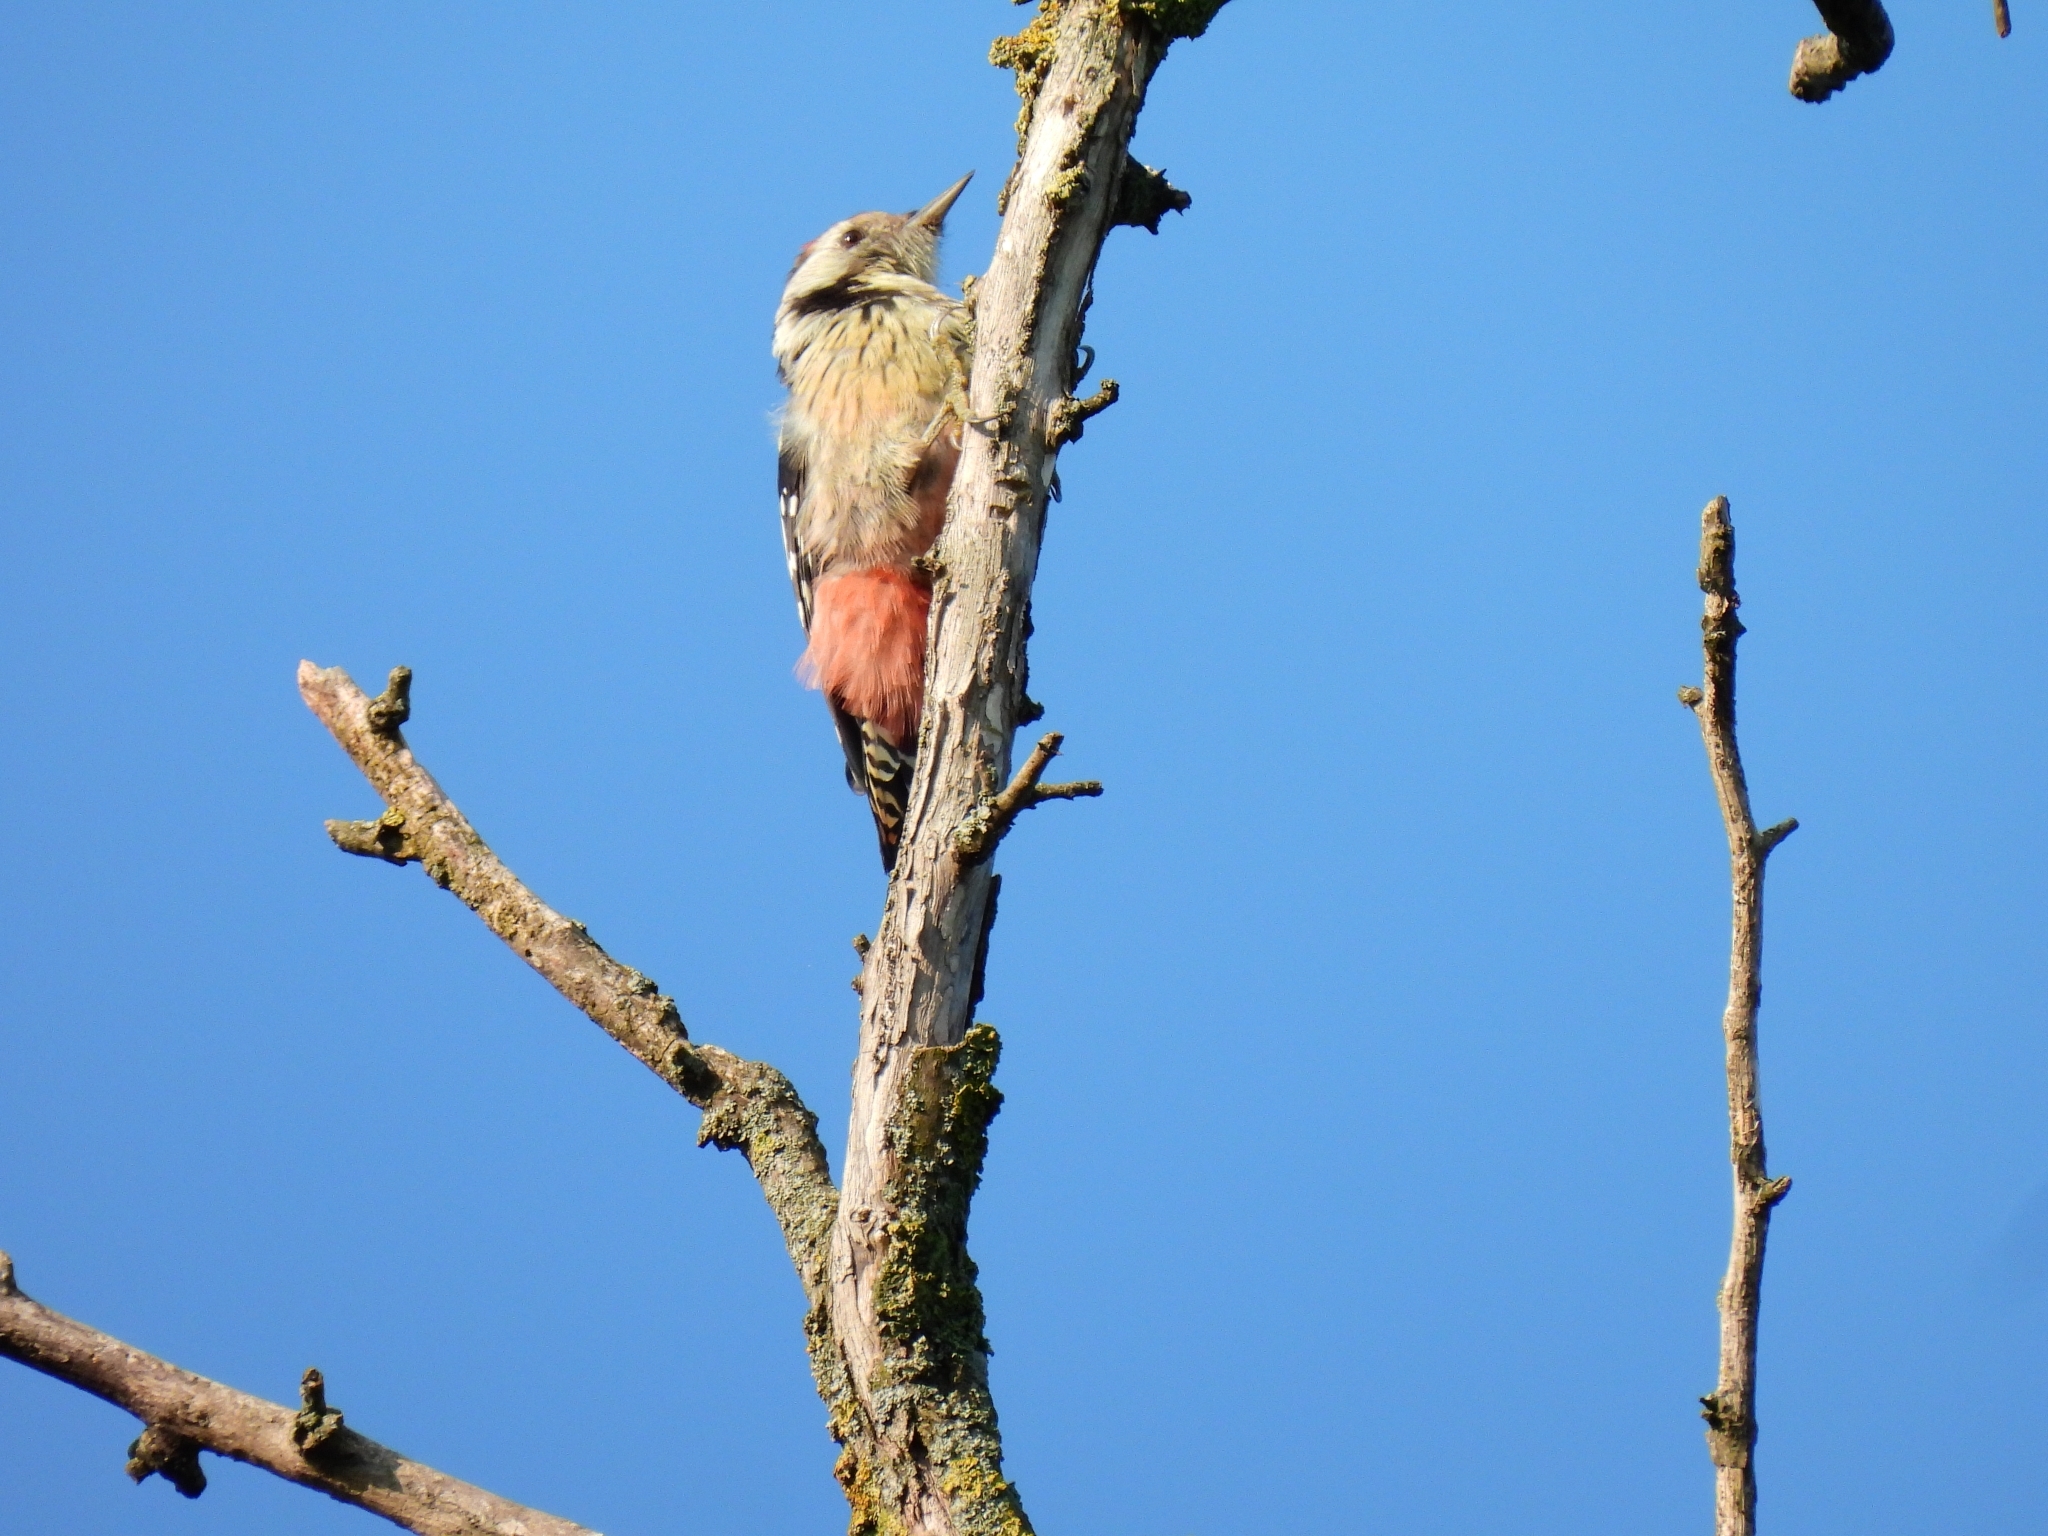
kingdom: Animalia
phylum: Chordata
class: Aves
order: Piciformes
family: Picidae
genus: Dendrocoptes
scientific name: Dendrocoptes medius
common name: Middle spotted woodpecker
